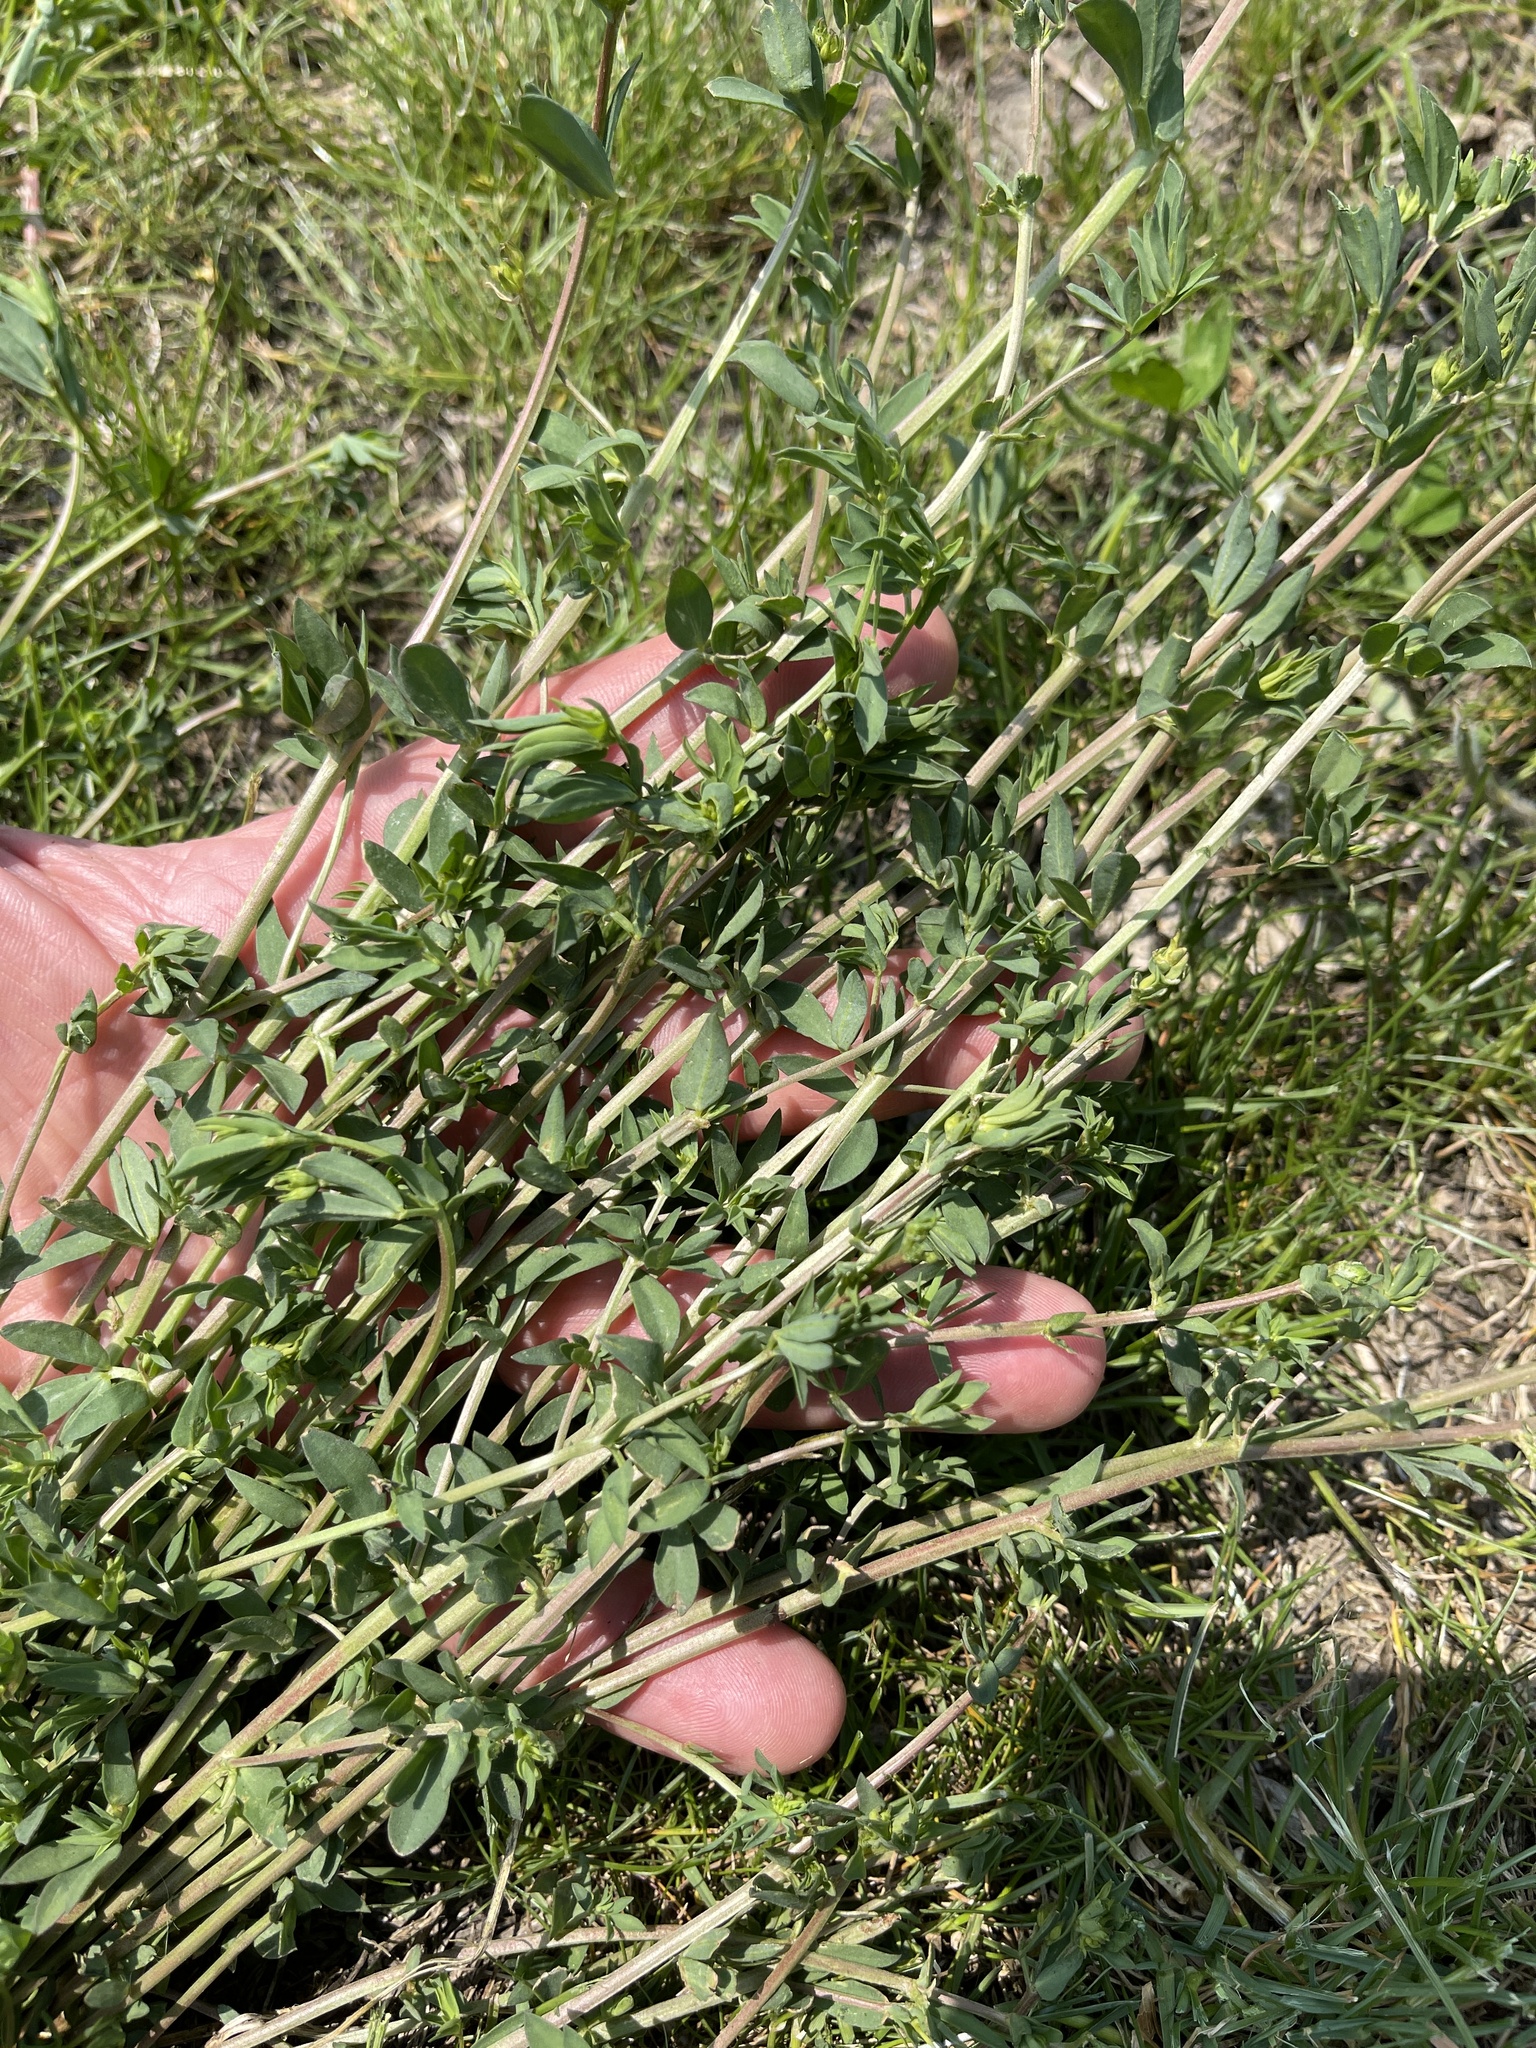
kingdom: Plantae
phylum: Tracheophyta
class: Magnoliopsida
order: Fabales
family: Fabaceae
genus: Lotus
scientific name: Lotus corniculatus
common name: Common bird's-foot-trefoil
